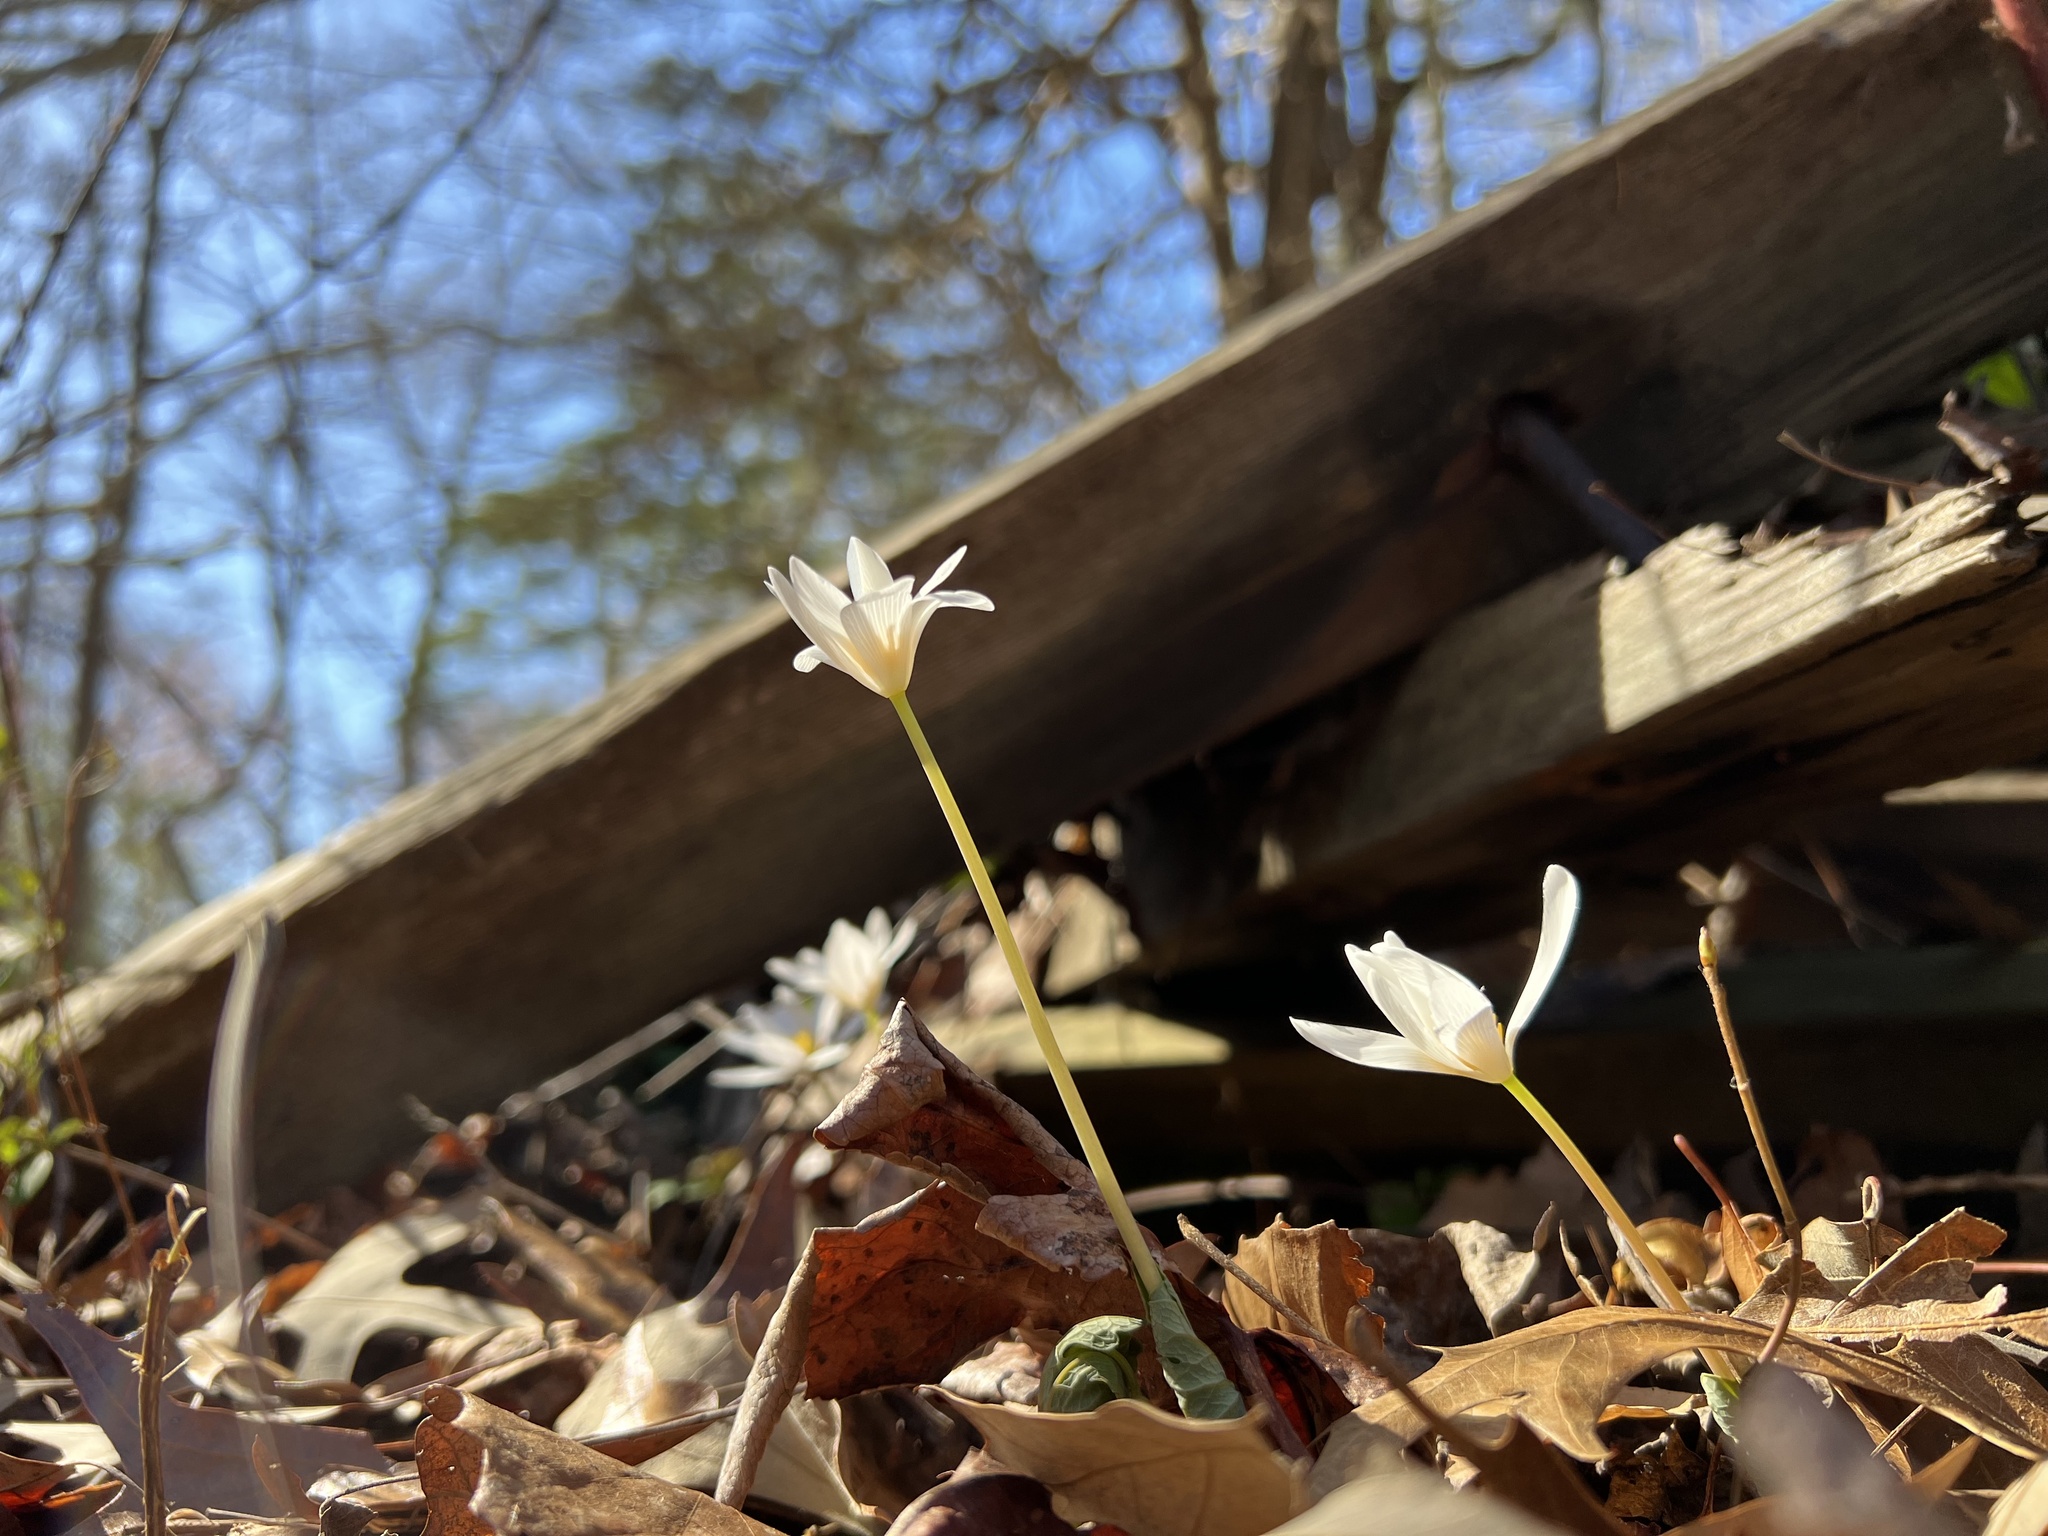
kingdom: Plantae
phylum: Tracheophyta
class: Magnoliopsida
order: Ranunculales
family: Papaveraceae
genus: Sanguinaria
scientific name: Sanguinaria canadensis
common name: Bloodroot
